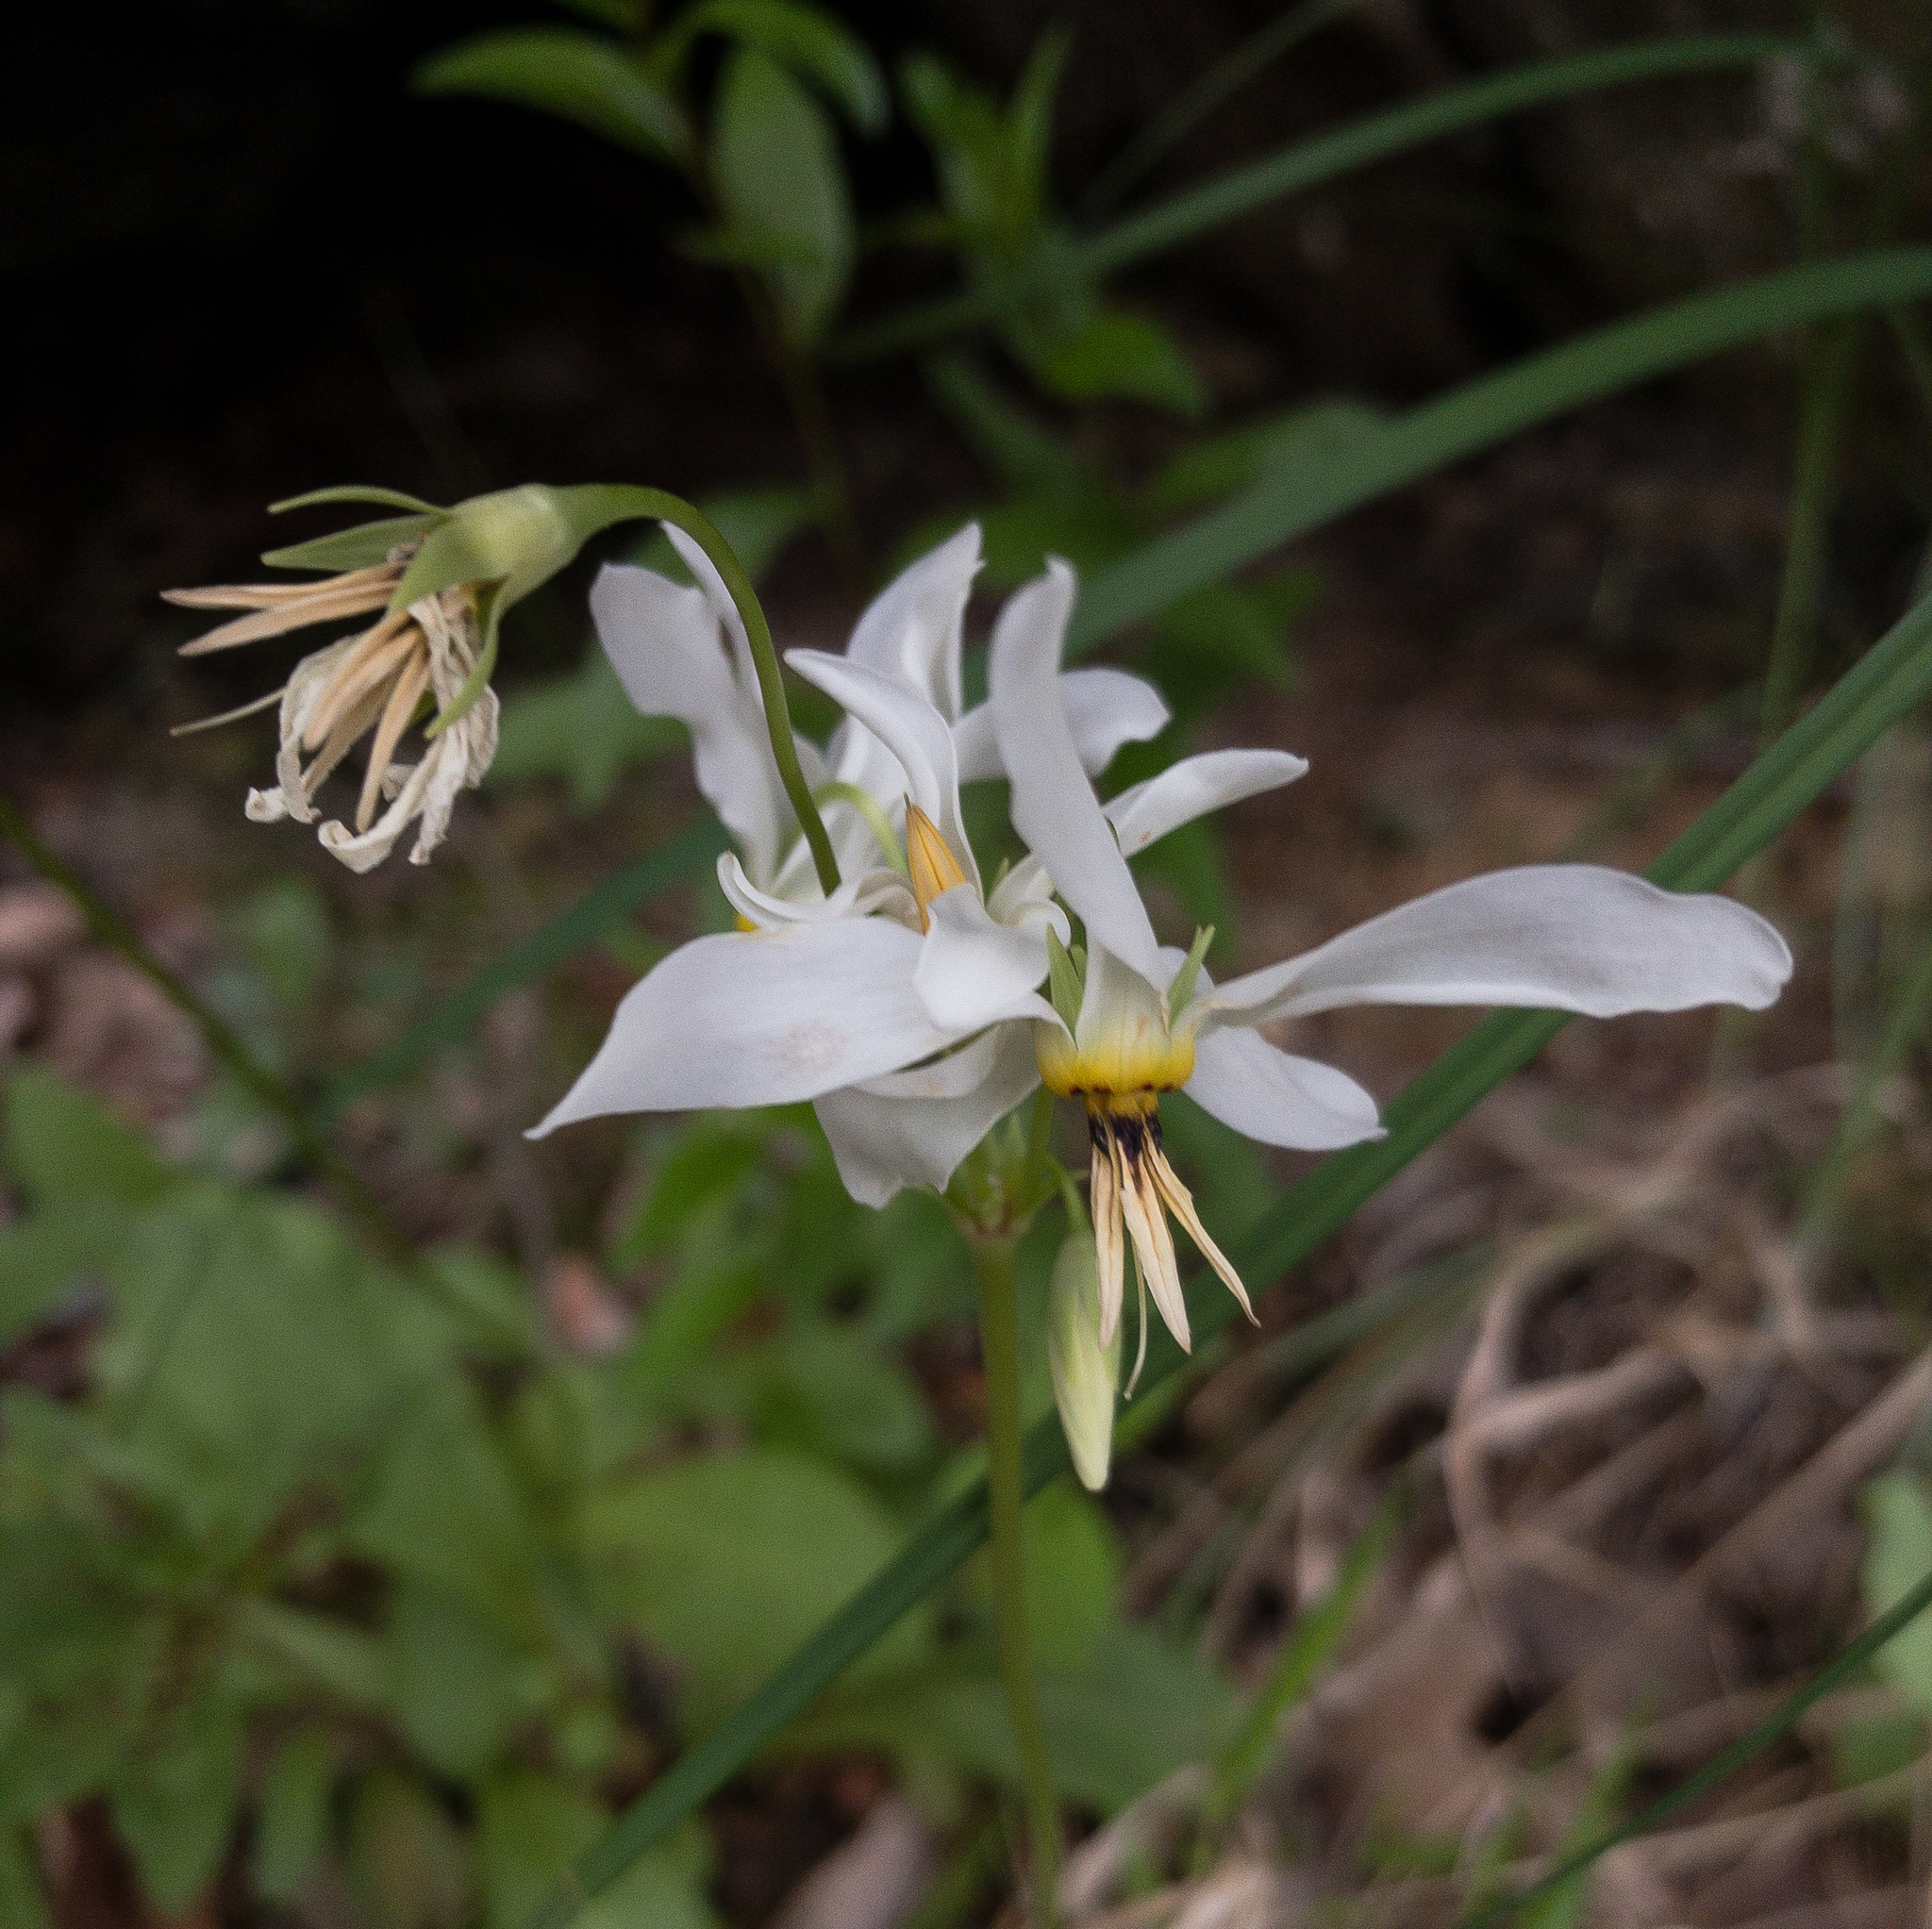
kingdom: Plantae
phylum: Tracheophyta
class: Magnoliopsida
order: Ericales
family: Primulaceae
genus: Dodecatheon
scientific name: Dodecatheon meadia
